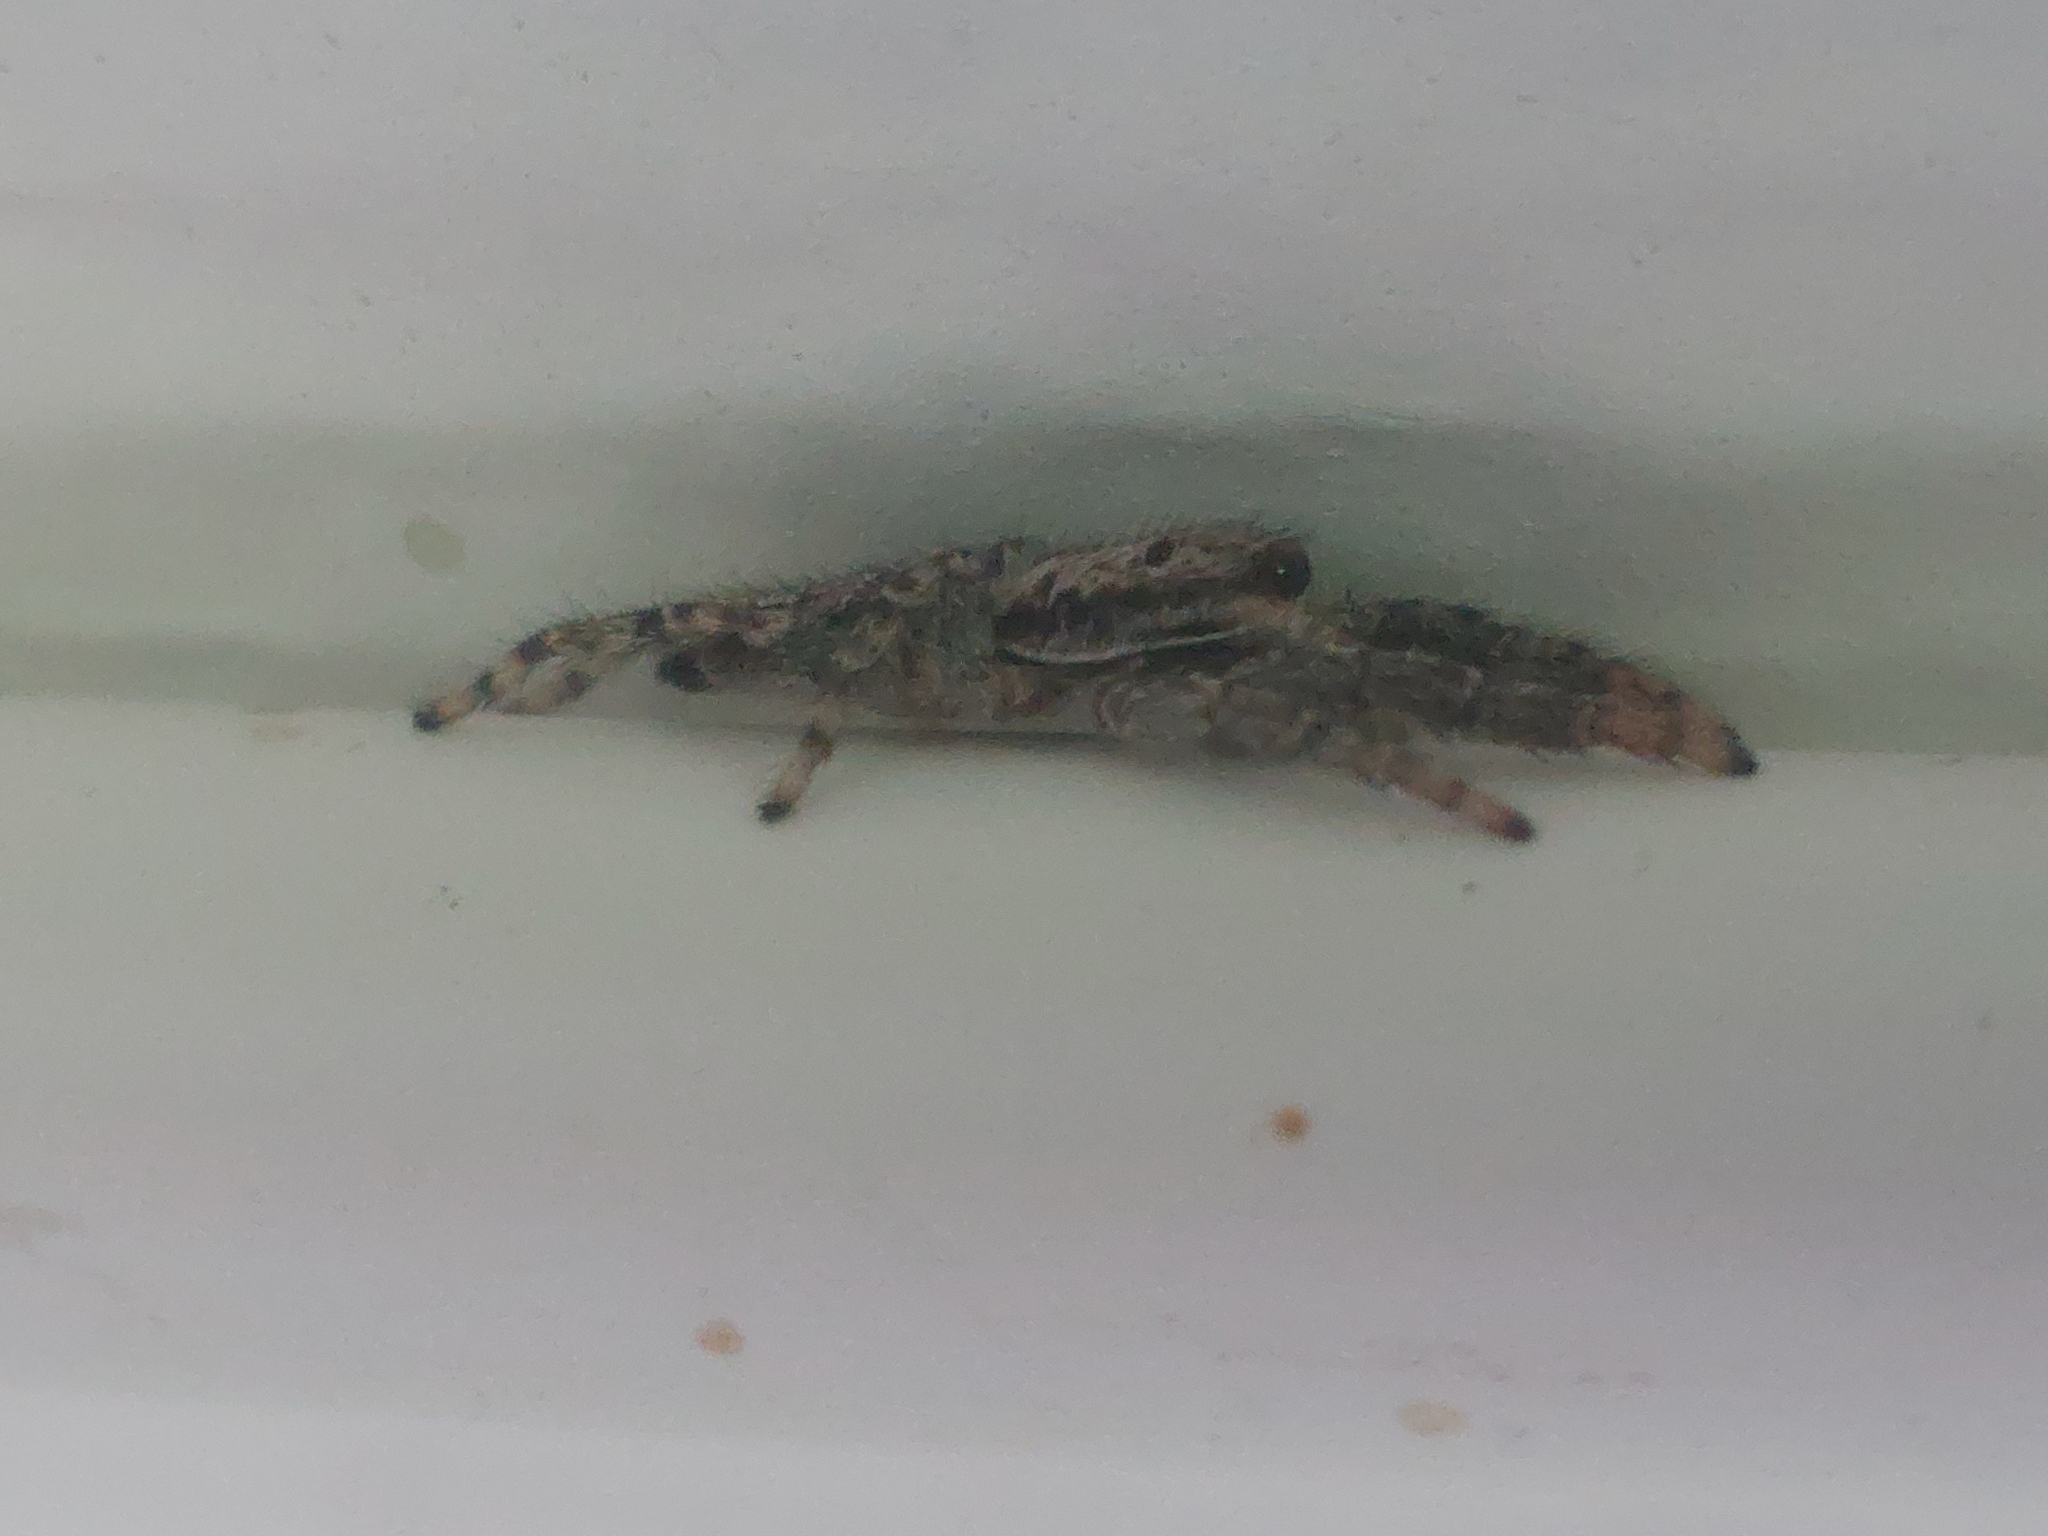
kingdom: Animalia
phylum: Arthropoda
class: Arachnida
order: Araneae
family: Salticidae
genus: Marpissa
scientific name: Marpissa muscosa
